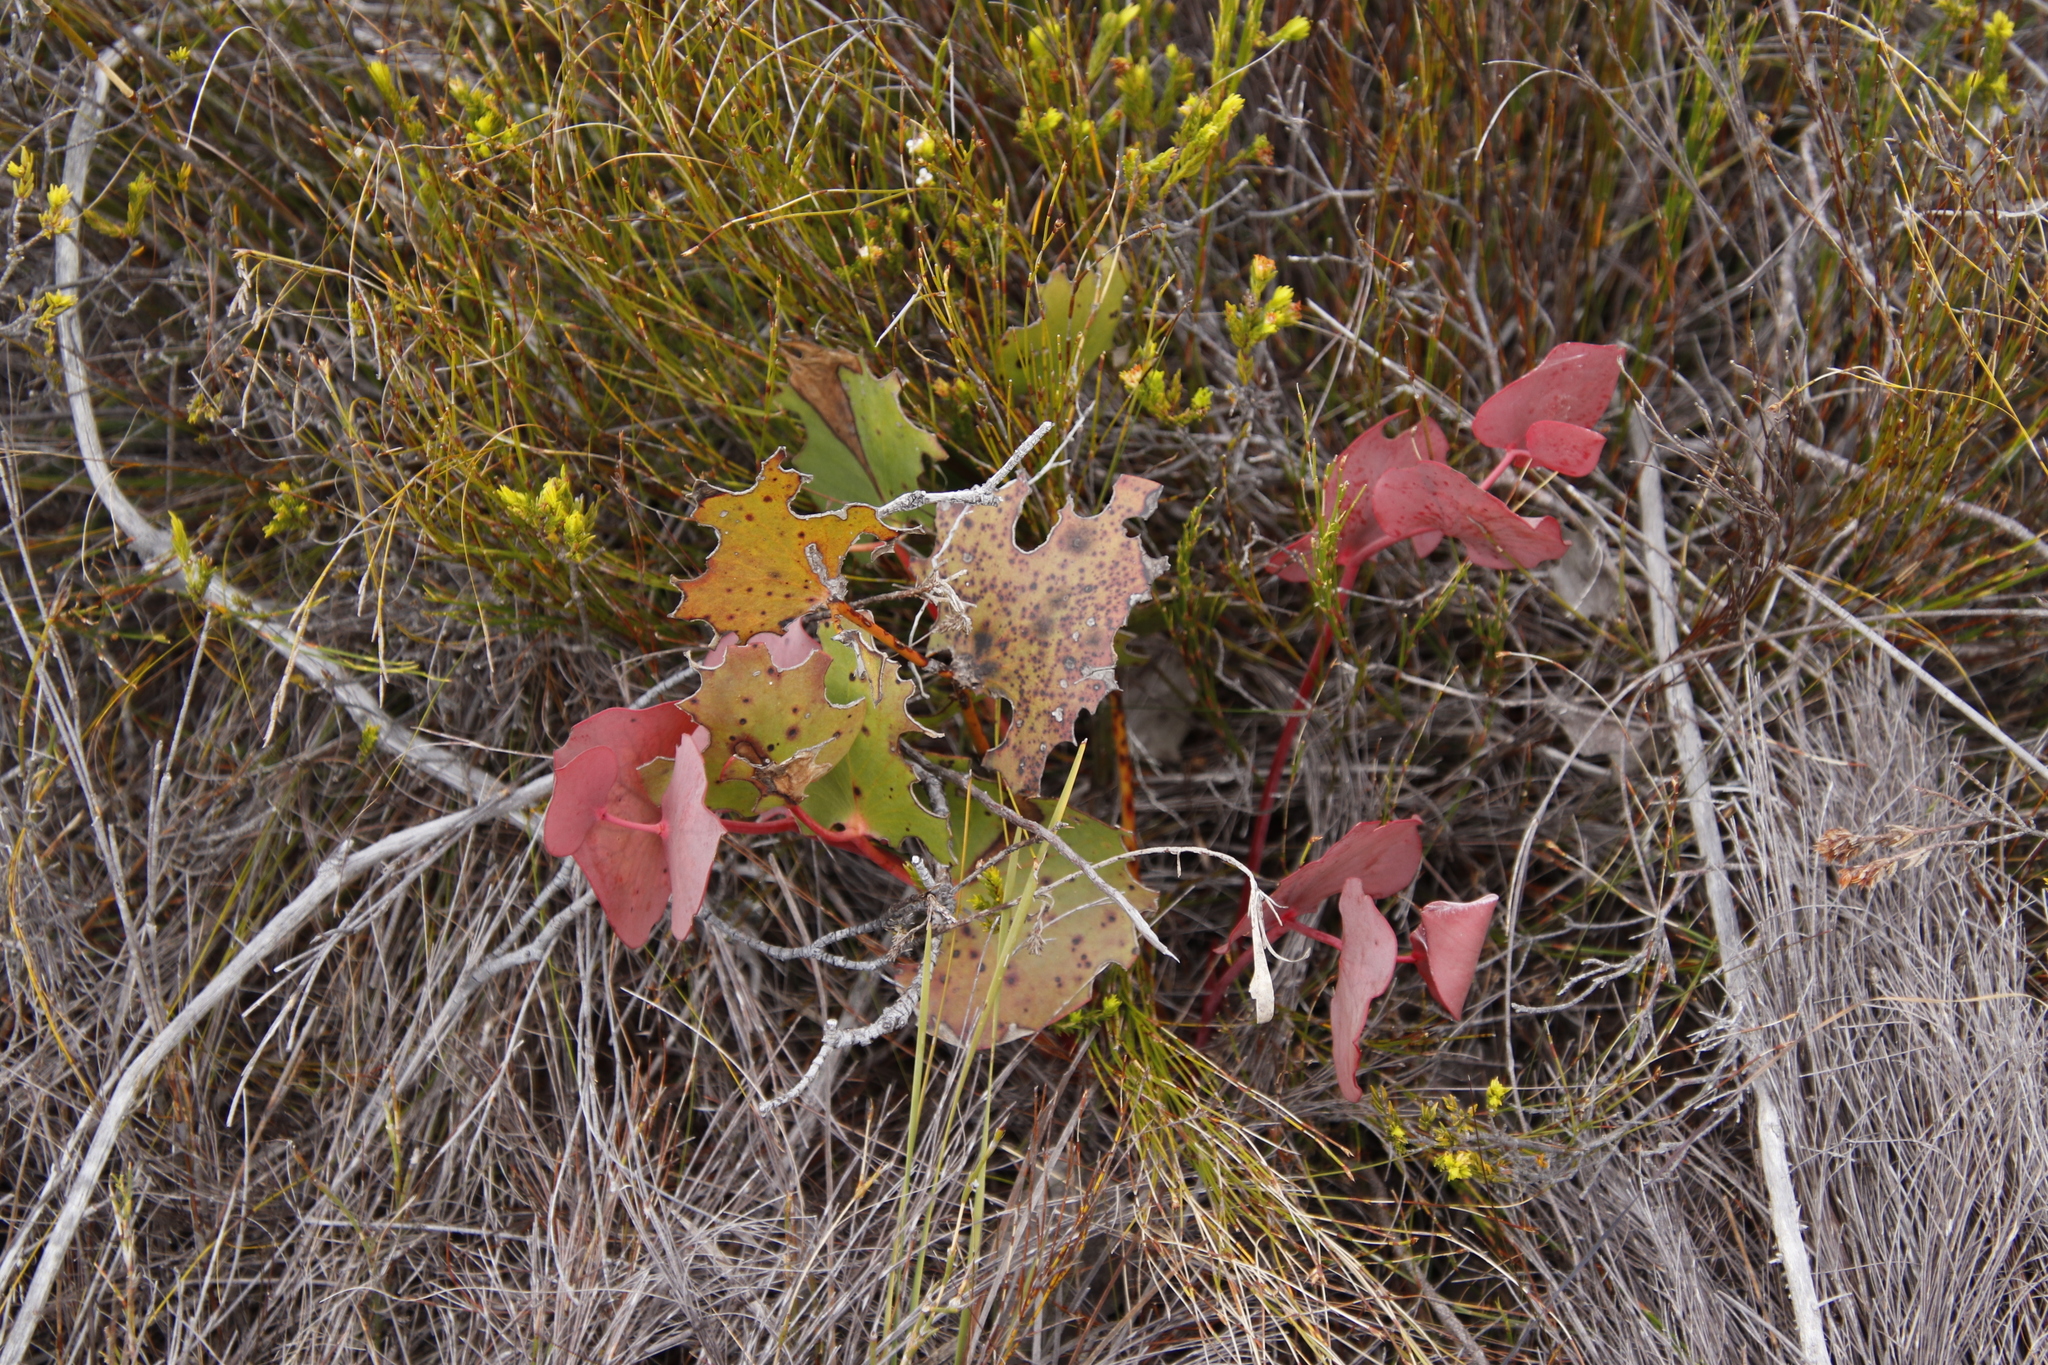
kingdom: Plantae
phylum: Tracheophyta
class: Magnoliopsida
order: Proteales
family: Proteaceae
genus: Protea
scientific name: Protea cordata
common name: Heart-leaf sugarbush
